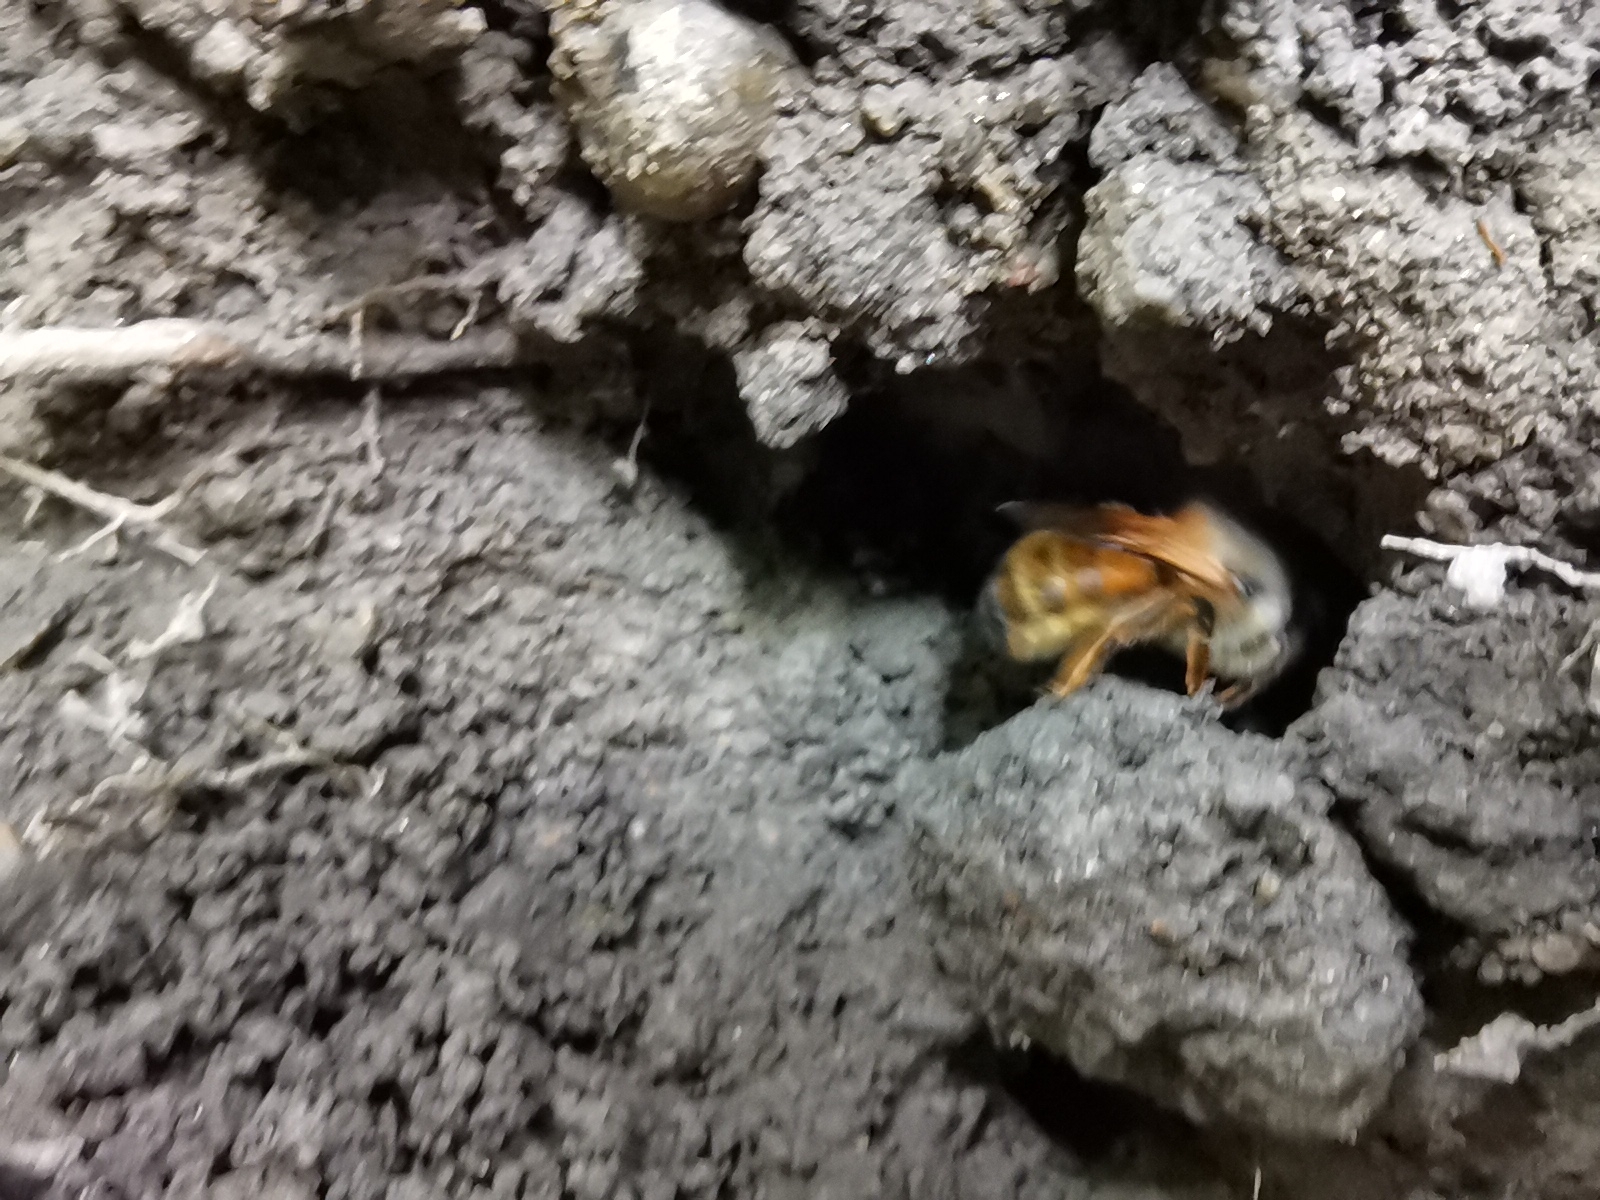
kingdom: Animalia
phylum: Arthropoda
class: Insecta
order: Hymenoptera
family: Megachilidae
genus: Osmia
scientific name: Osmia bicornis
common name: Red mason bee
